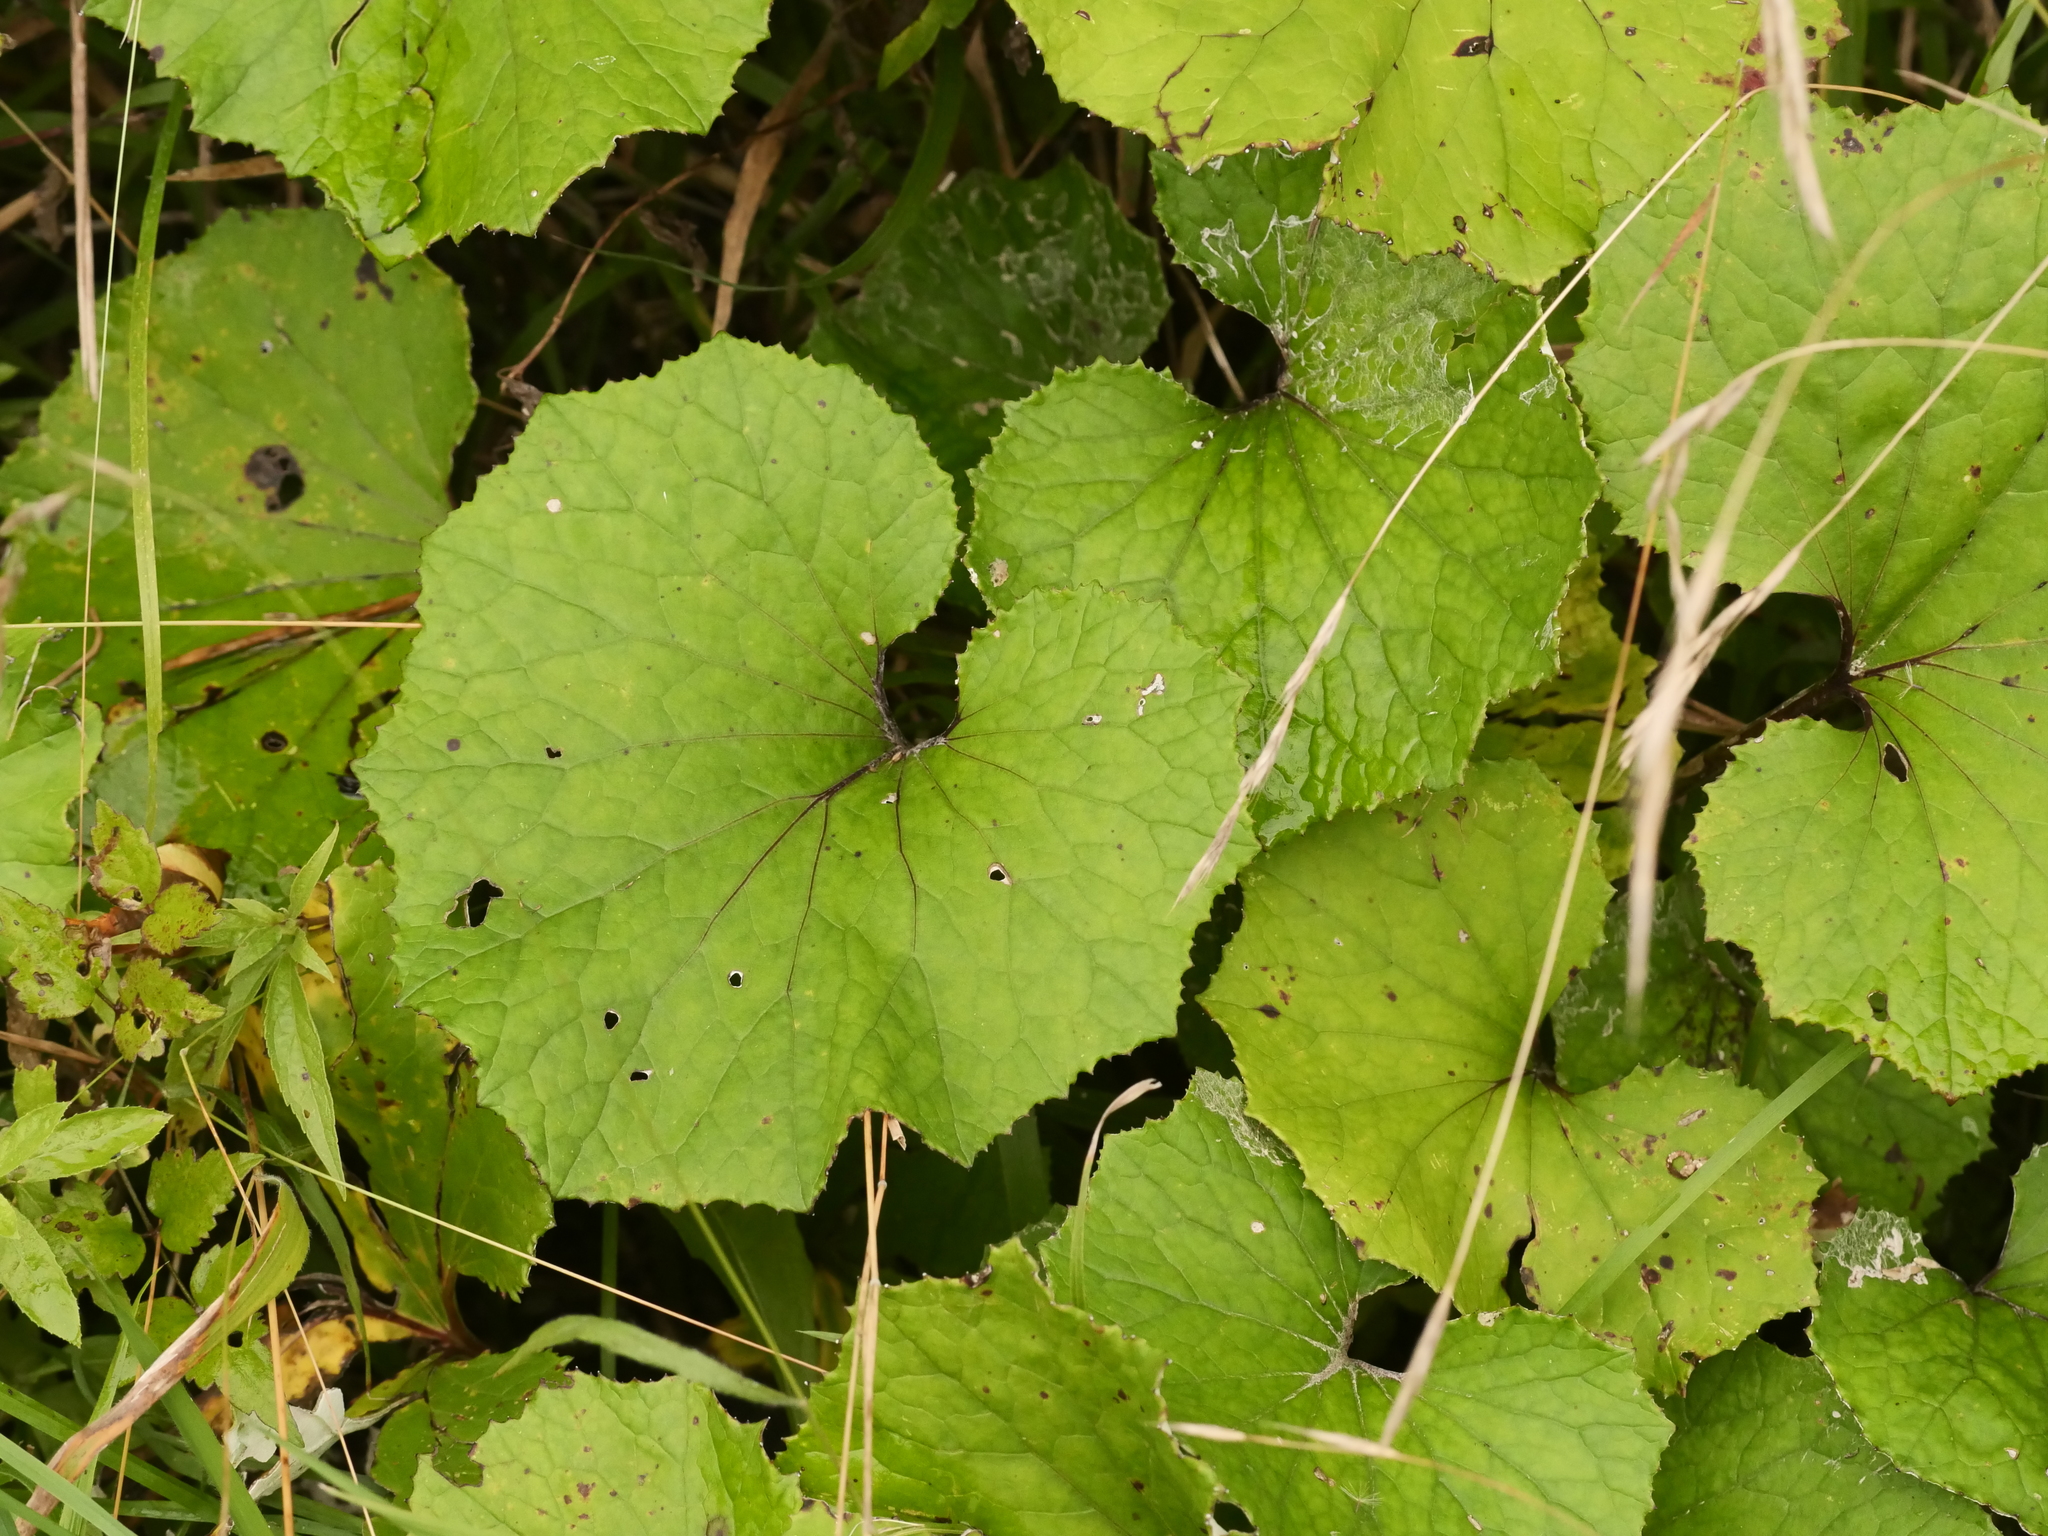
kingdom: Plantae
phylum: Tracheophyta
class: Magnoliopsida
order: Asterales
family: Asteraceae
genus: Tussilago
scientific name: Tussilago farfara
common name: Coltsfoot
